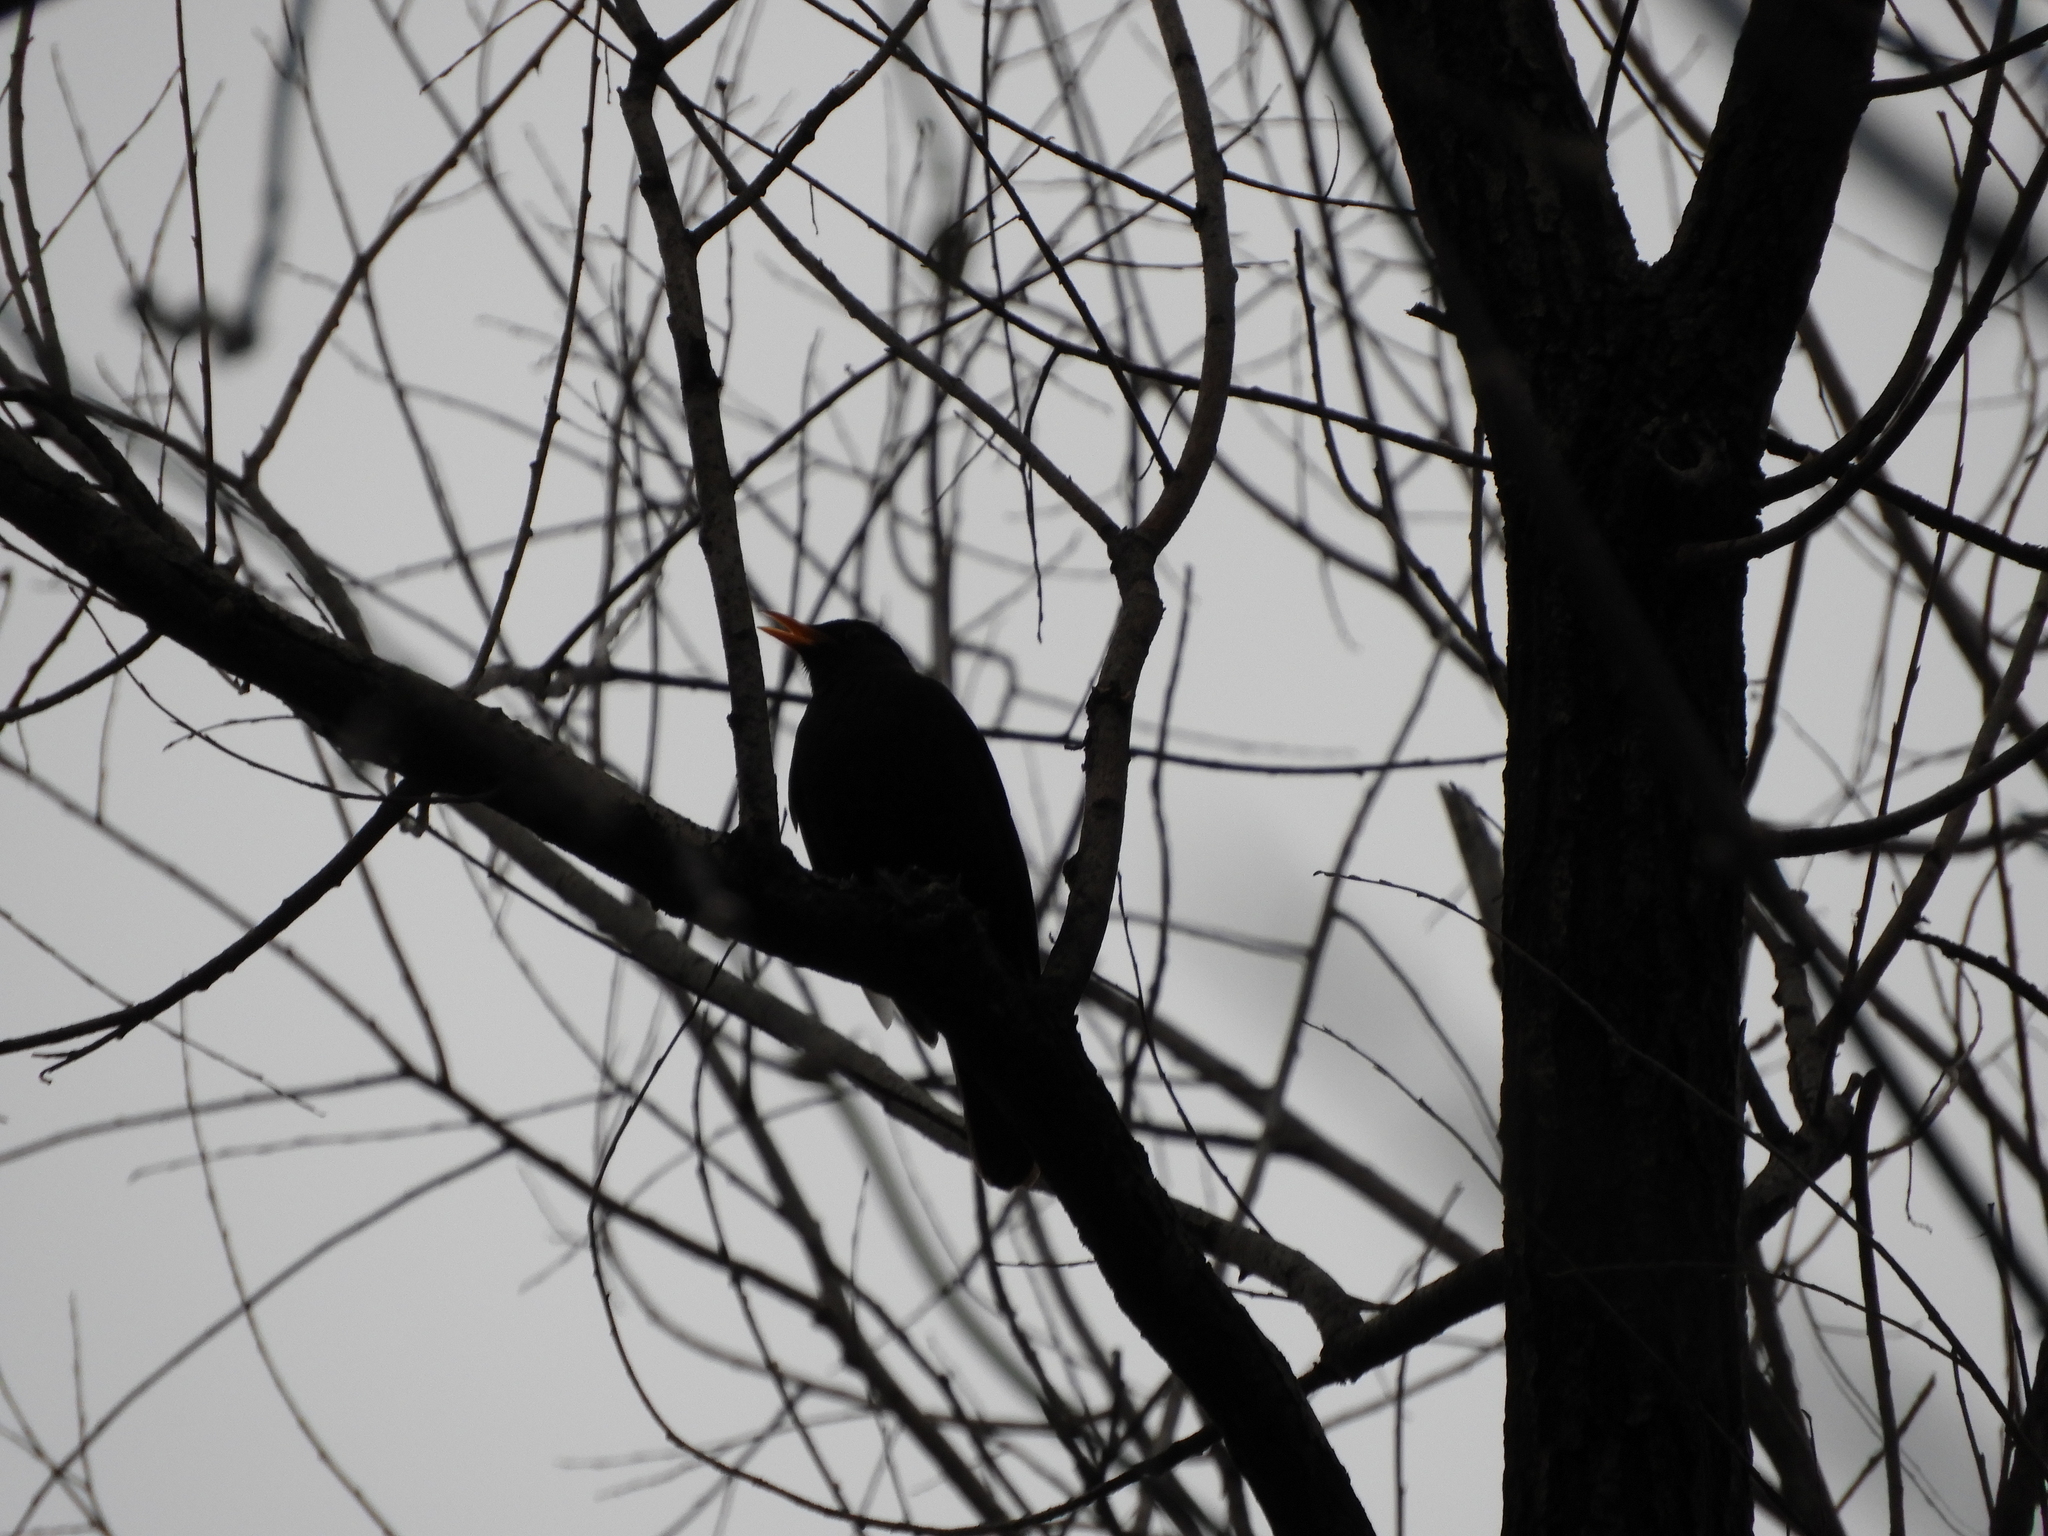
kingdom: Animalia
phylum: Chordata
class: Aves
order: Passeriformes
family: Turdidae
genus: Turdus
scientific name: Turdus merula
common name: Common blackbird
